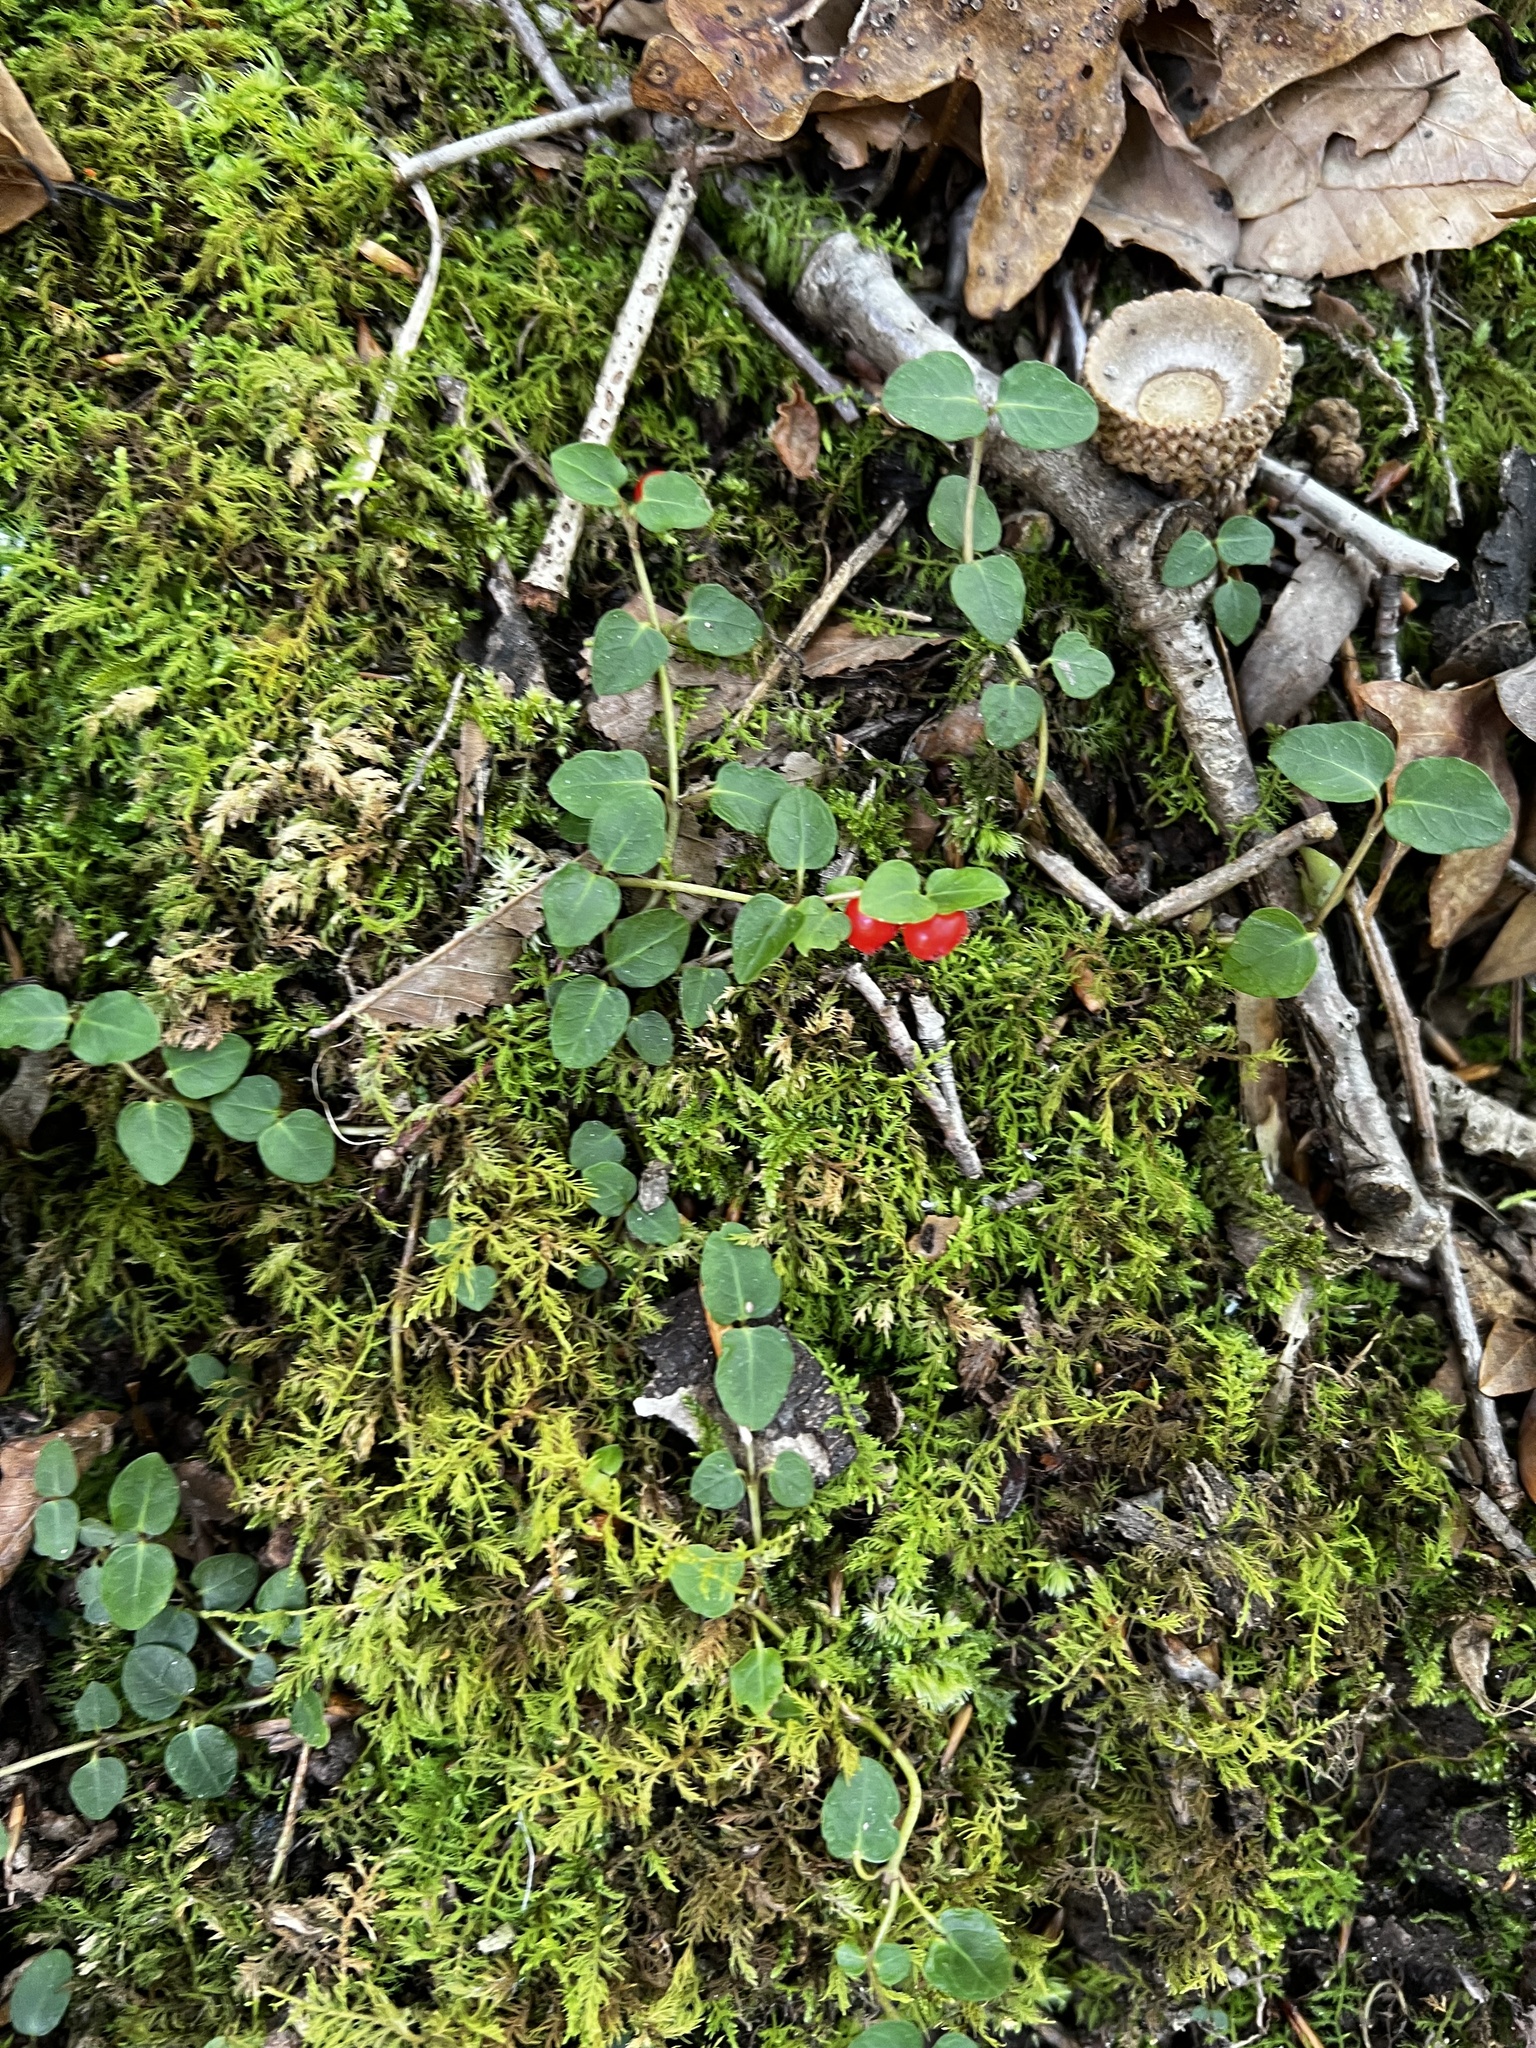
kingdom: Plantae
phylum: Tracheophyta
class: Magnoliopsida
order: Gentianales
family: Rubiaceae
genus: Mitchella
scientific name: Mitchella repens
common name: Partridge-berry
